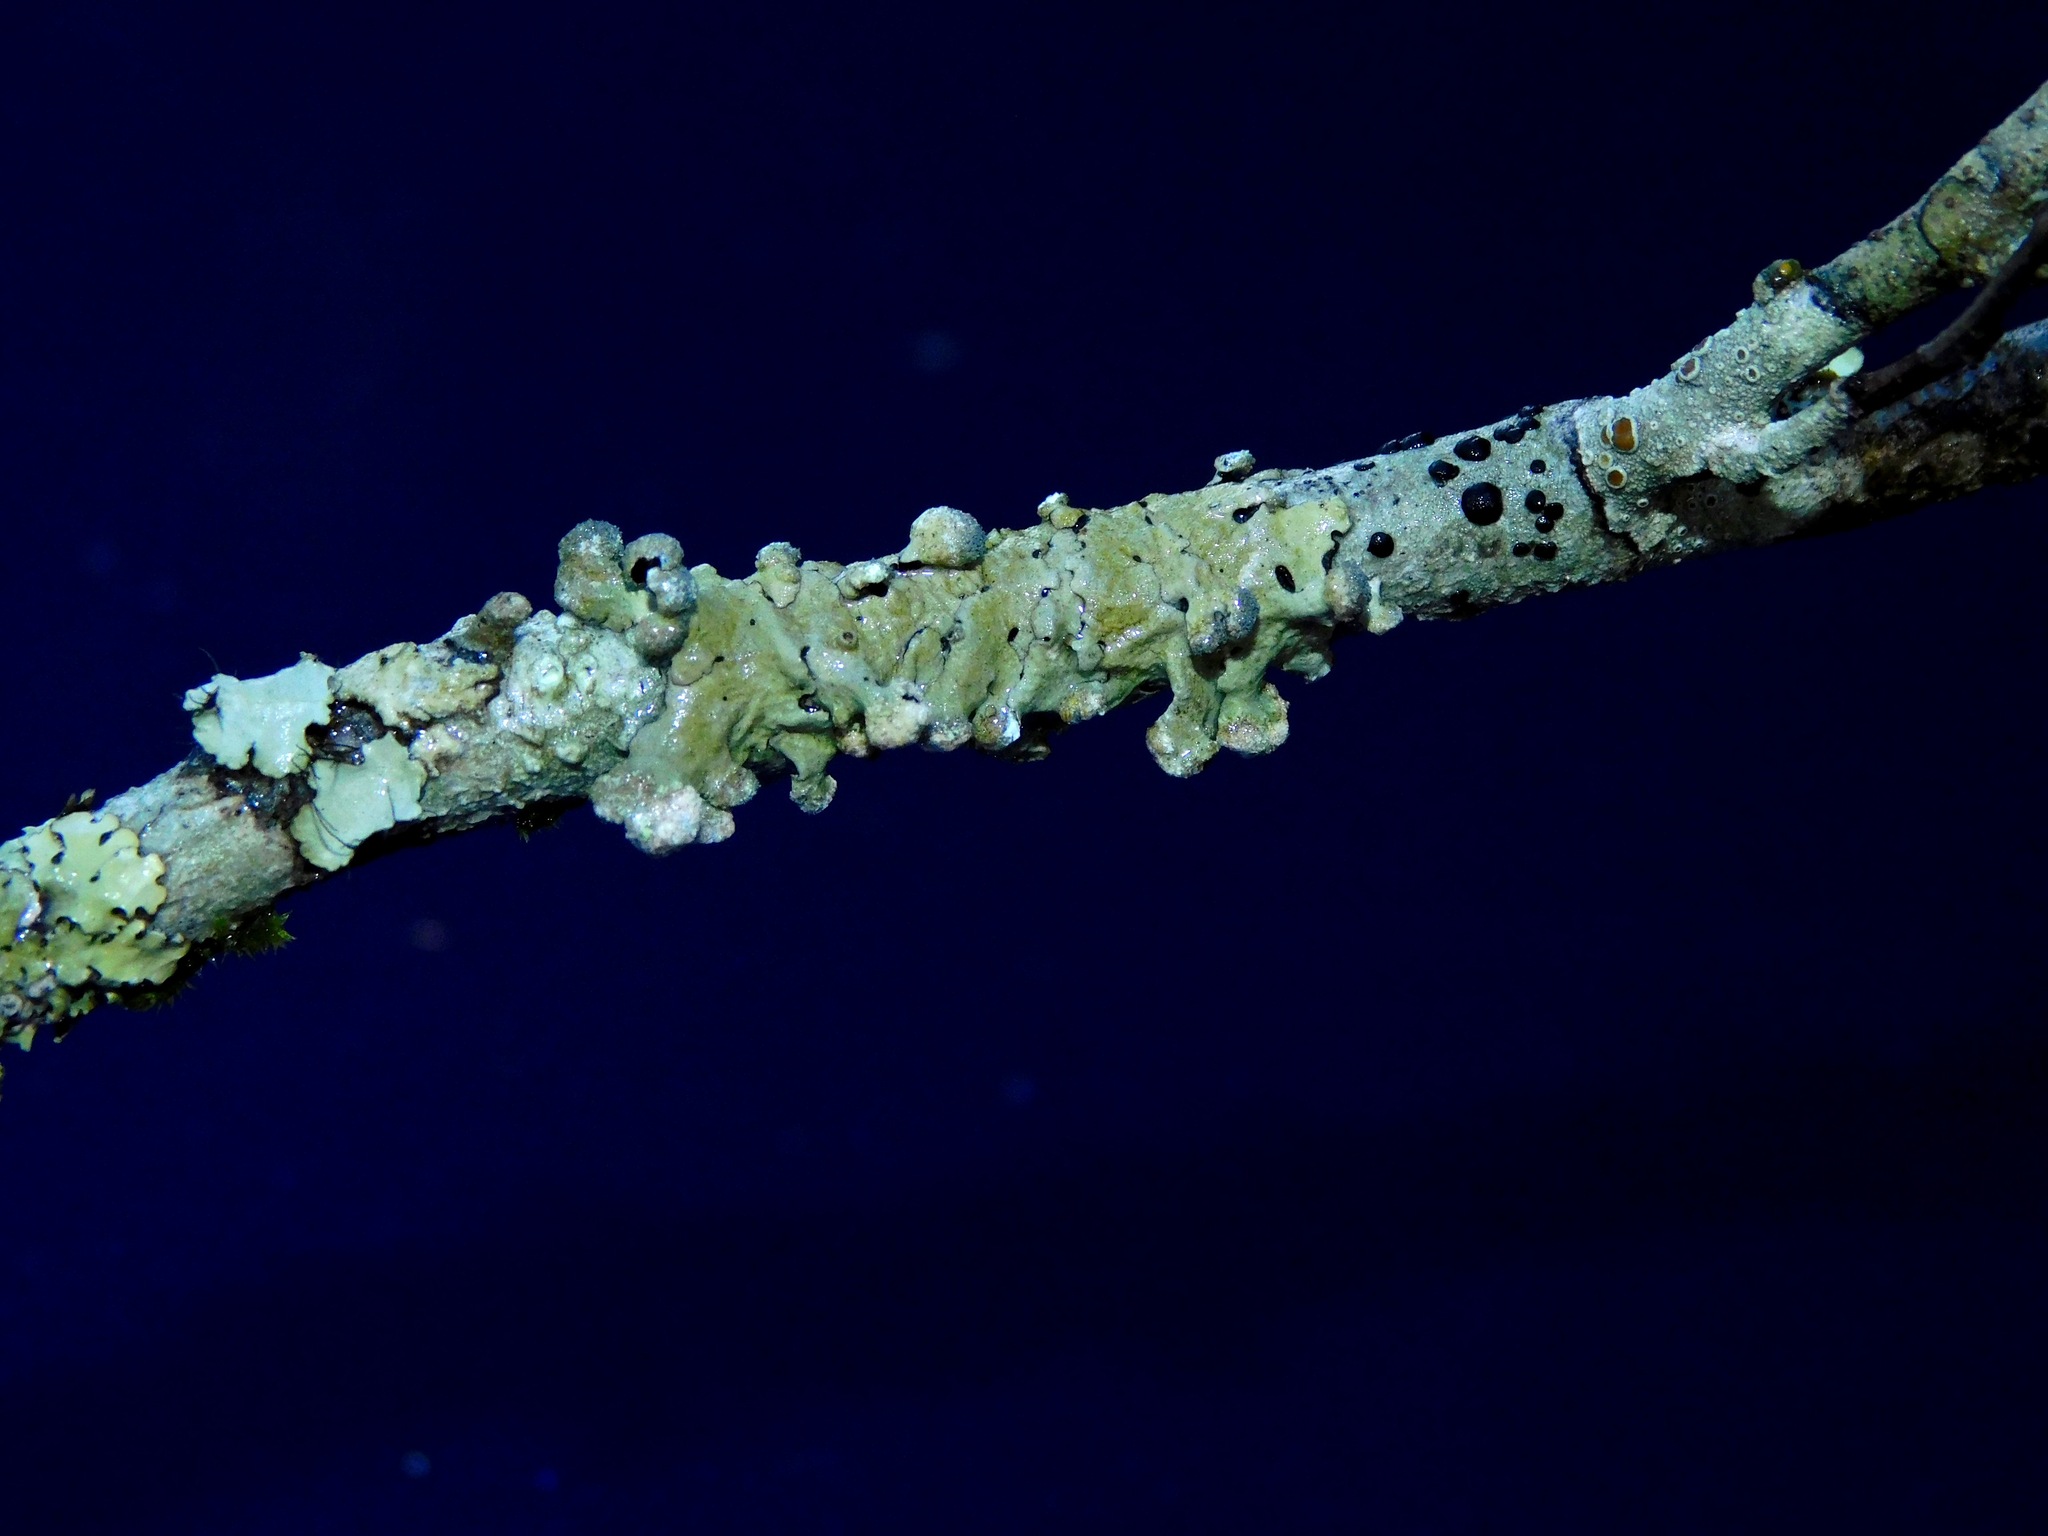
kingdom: Fungi
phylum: Ascomycota
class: Lecanoromycetes
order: Lecanorales
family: Parmeliaceae
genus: Myelochroa
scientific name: Myelochroa metarevoluta
